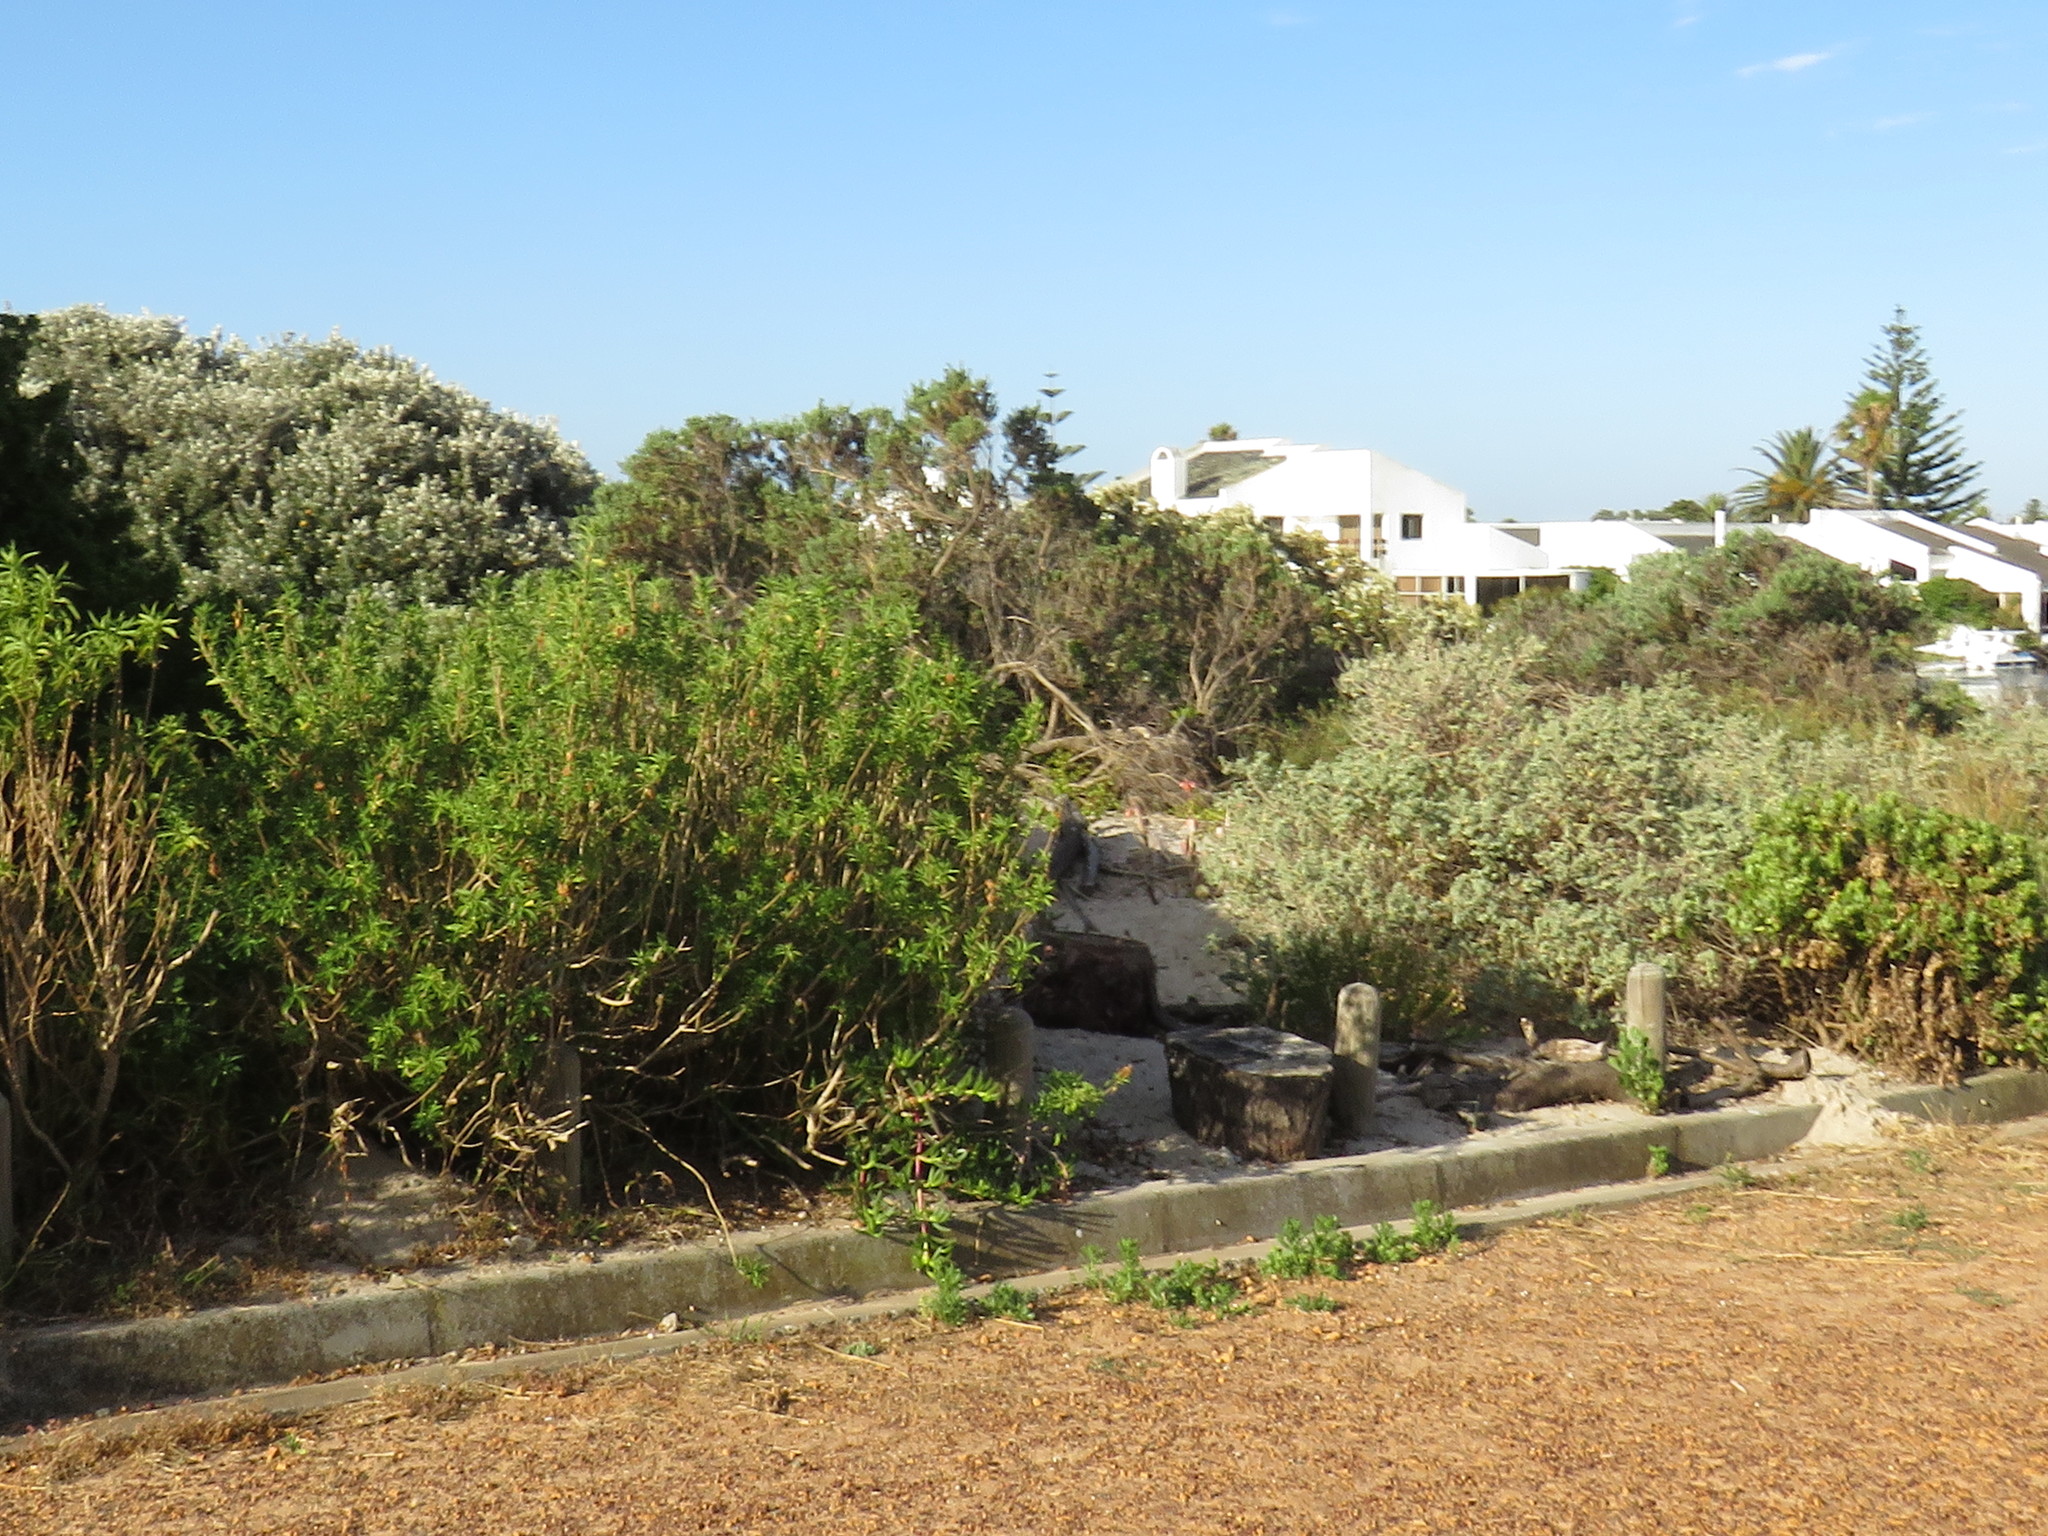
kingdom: Plantae
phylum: Tracheophyta
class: Magnoliopsida
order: Lamiales
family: Lamiaceae
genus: Leonotis
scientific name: Leonotis leonurus
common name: Lion's ear
